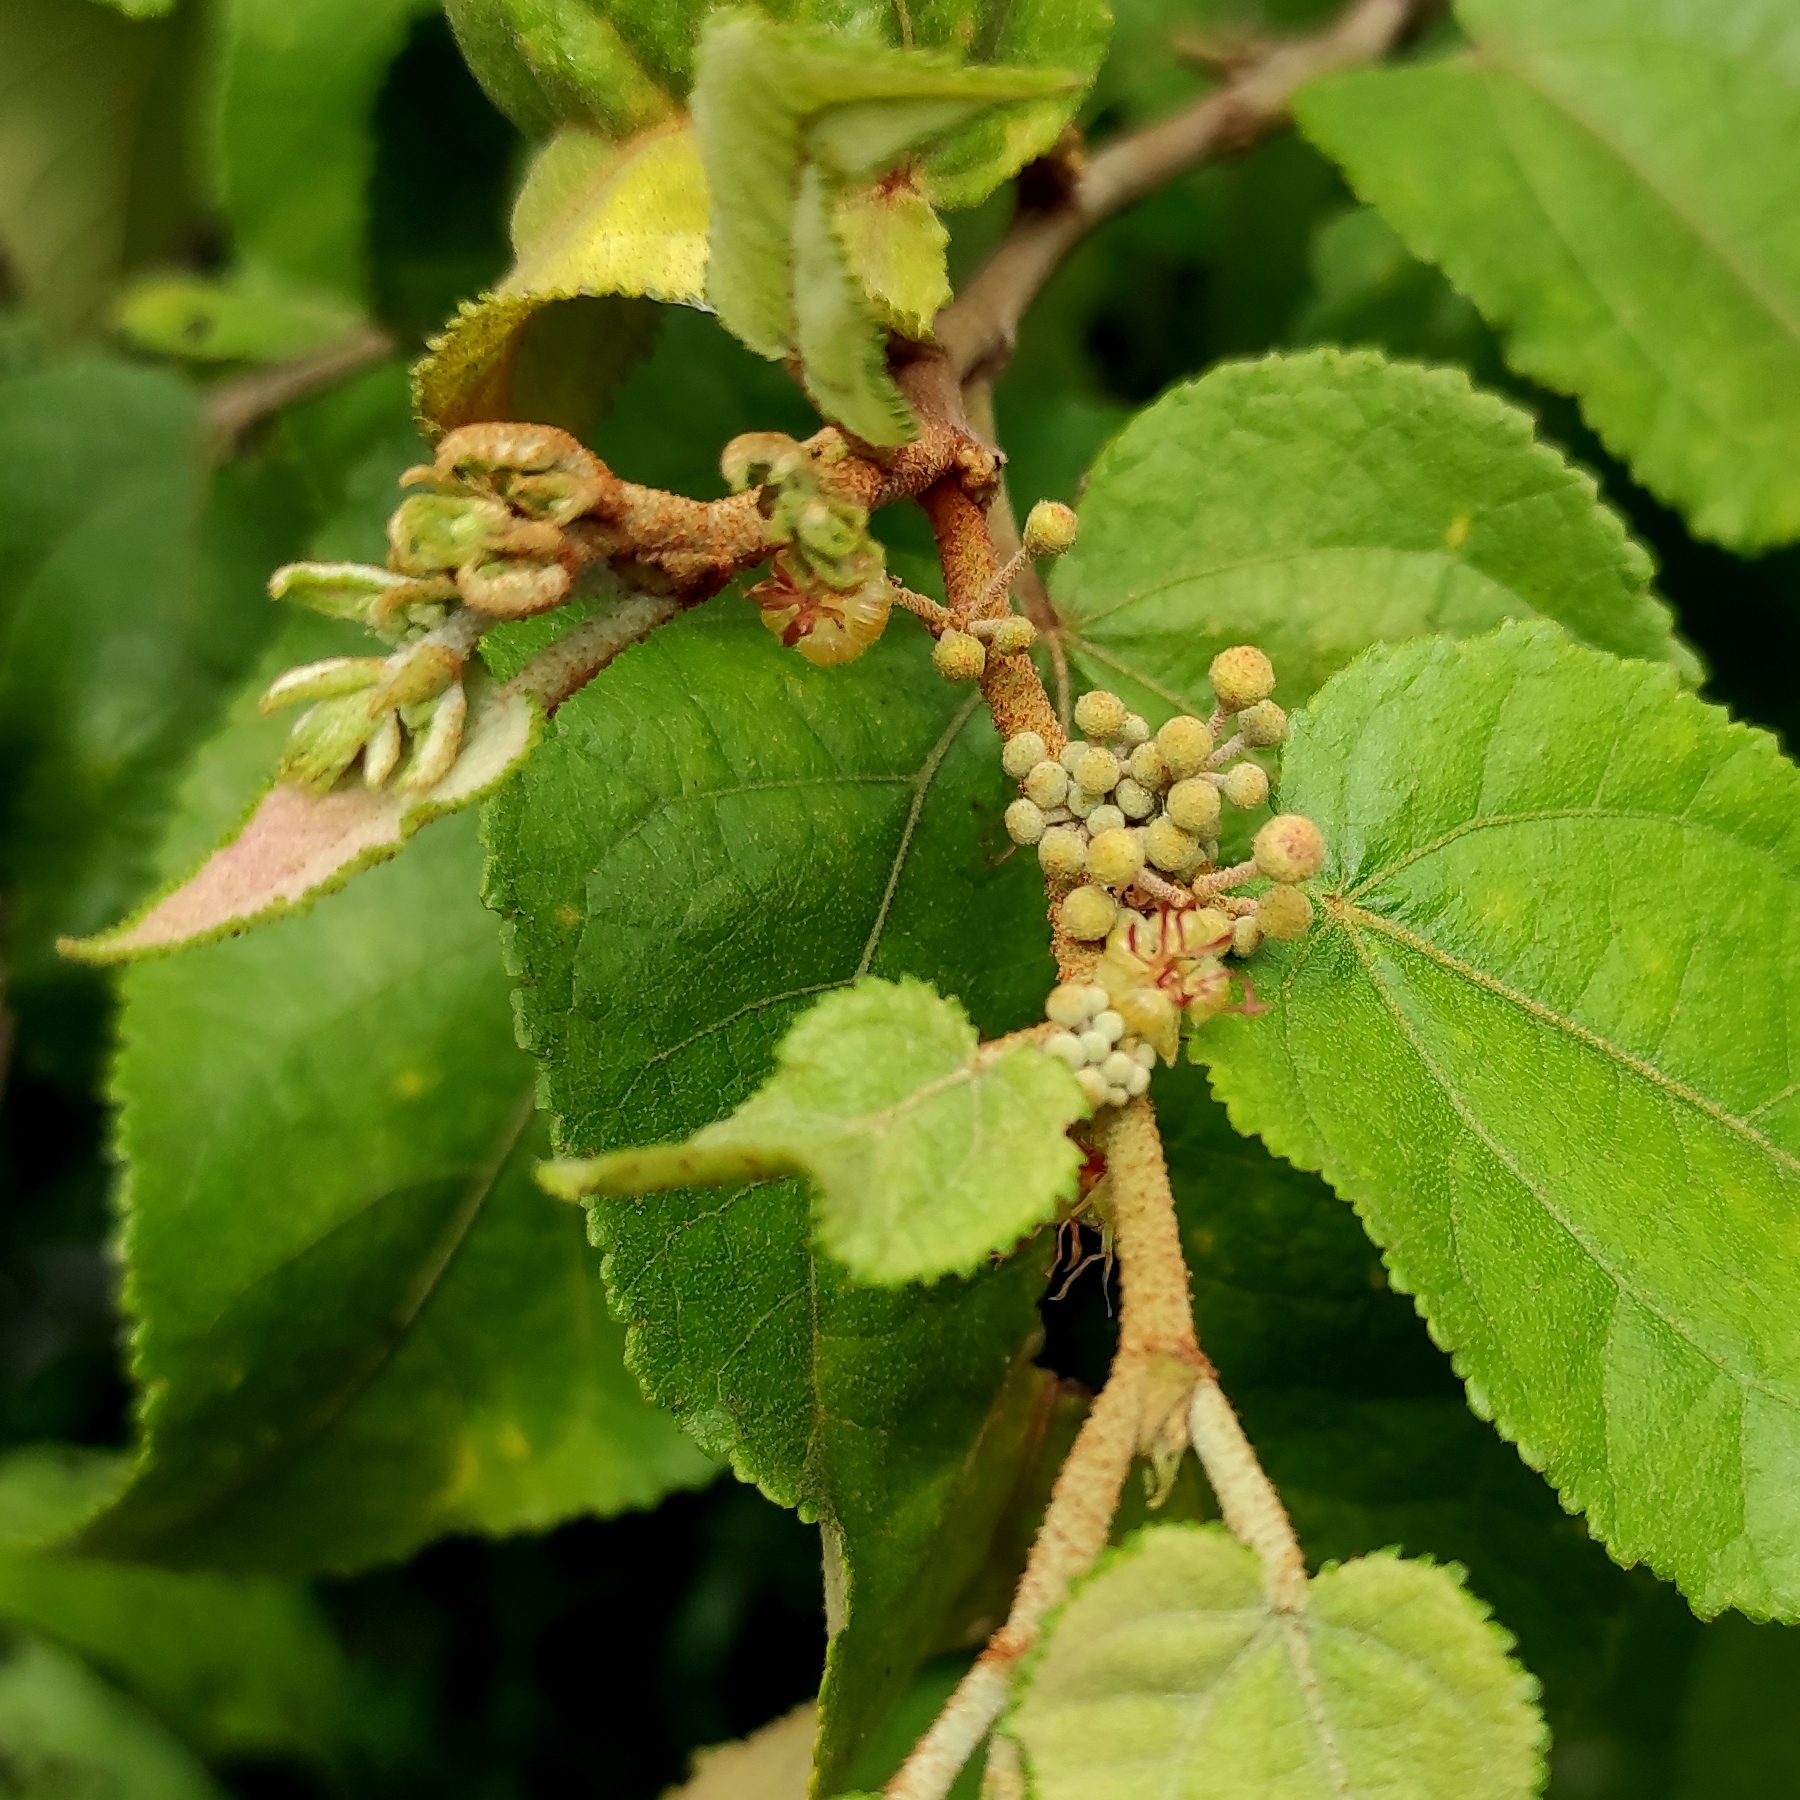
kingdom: Plantae
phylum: Tracheophyta
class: Magnoliopsida
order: Malvales
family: Malvaceae
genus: Guazuma
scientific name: Guazuma ulmifolia
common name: Bastard-cedar
